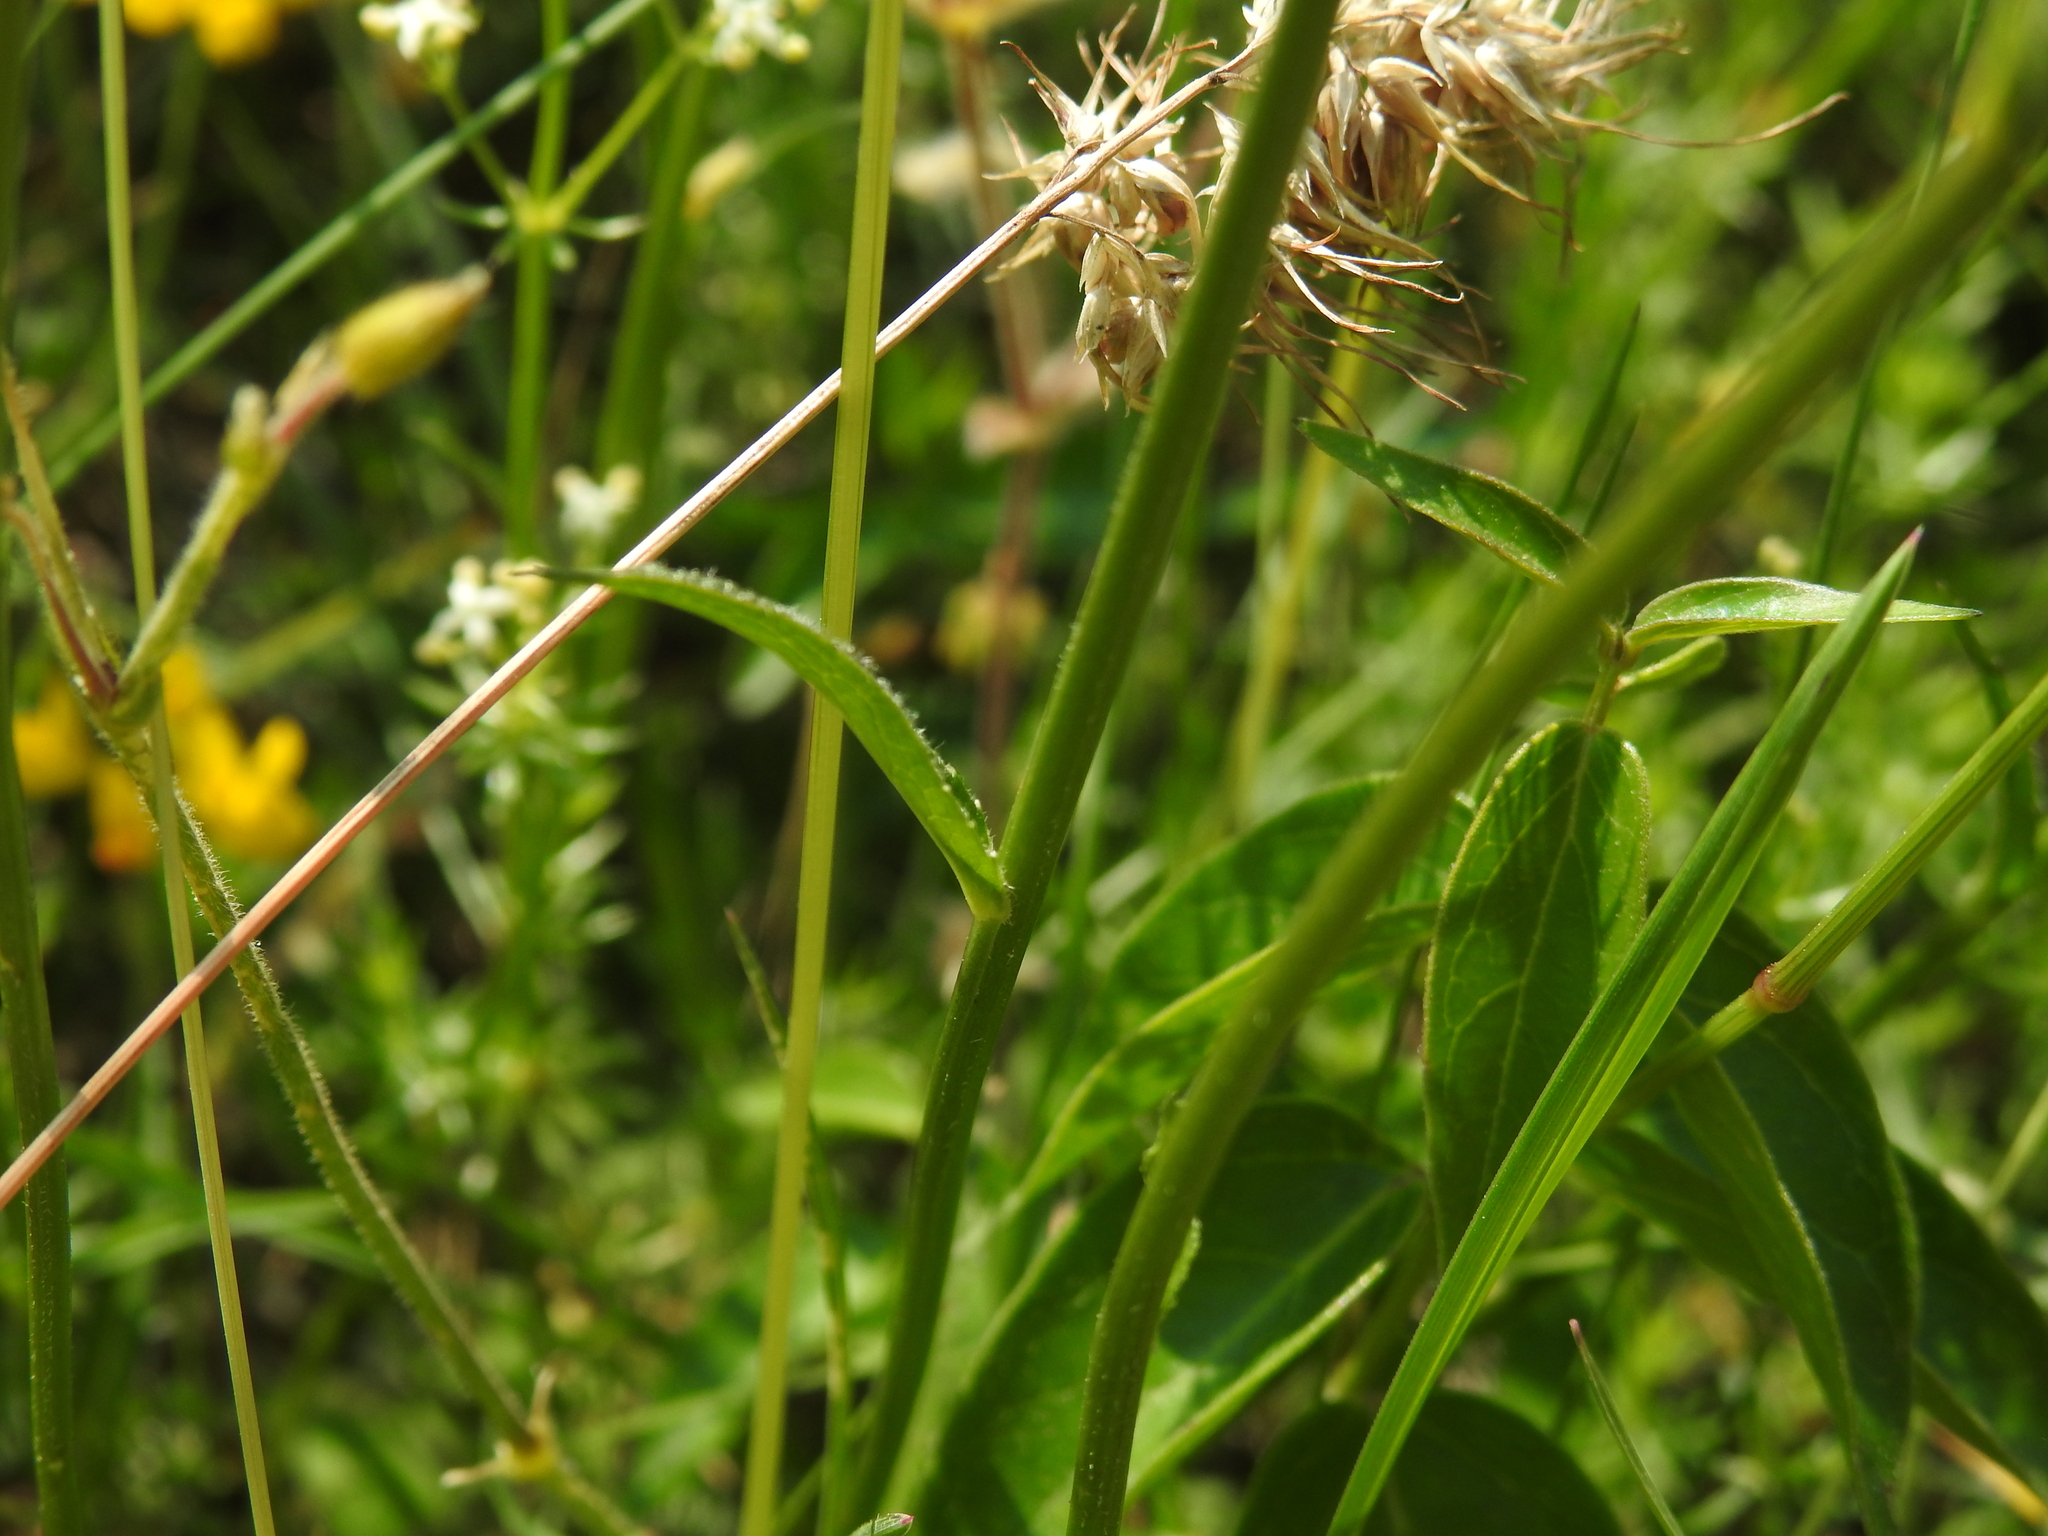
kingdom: Plantae
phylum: Tracheophyta
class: Magnoliopsida
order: Asterales
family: Campanulaceae
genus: Phyteuma
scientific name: Phyteuma orbiculare
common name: Round-headed rampion
